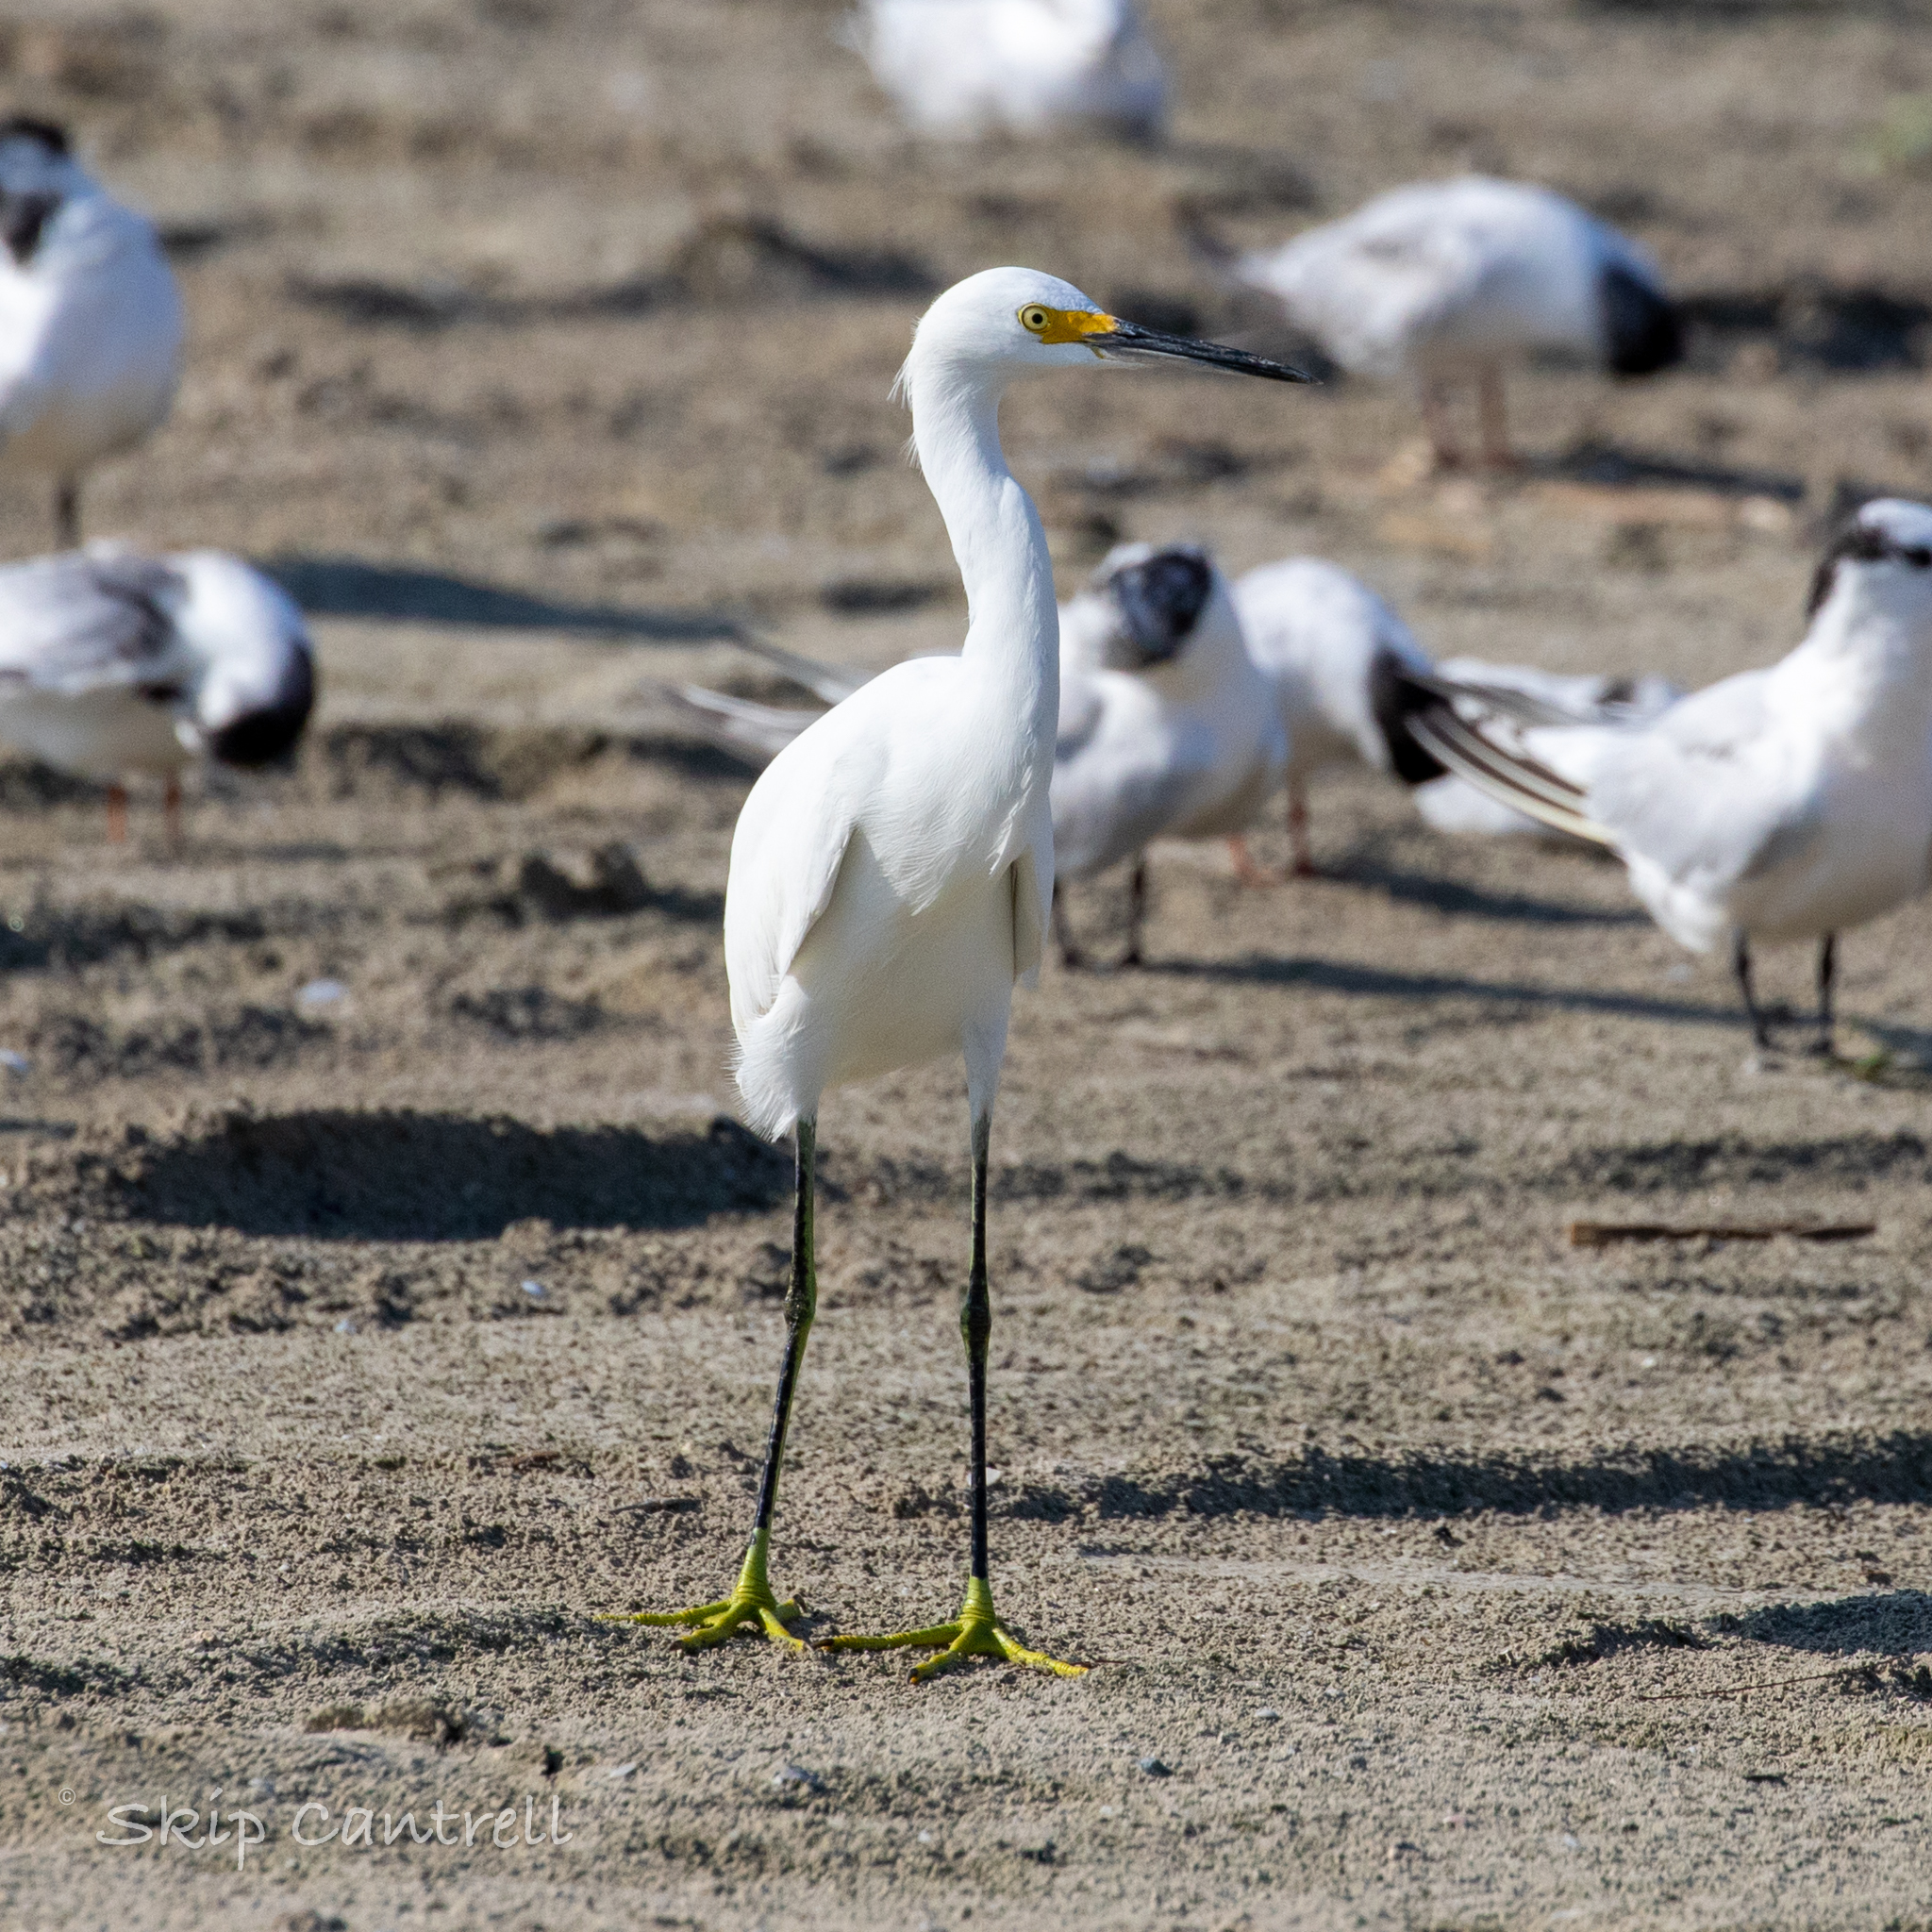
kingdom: Animalia
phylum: Chordata
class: Aves
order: Pelecaniformes
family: Ardeidae
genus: Egretta
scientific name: Egretta thula
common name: Snowy egret
